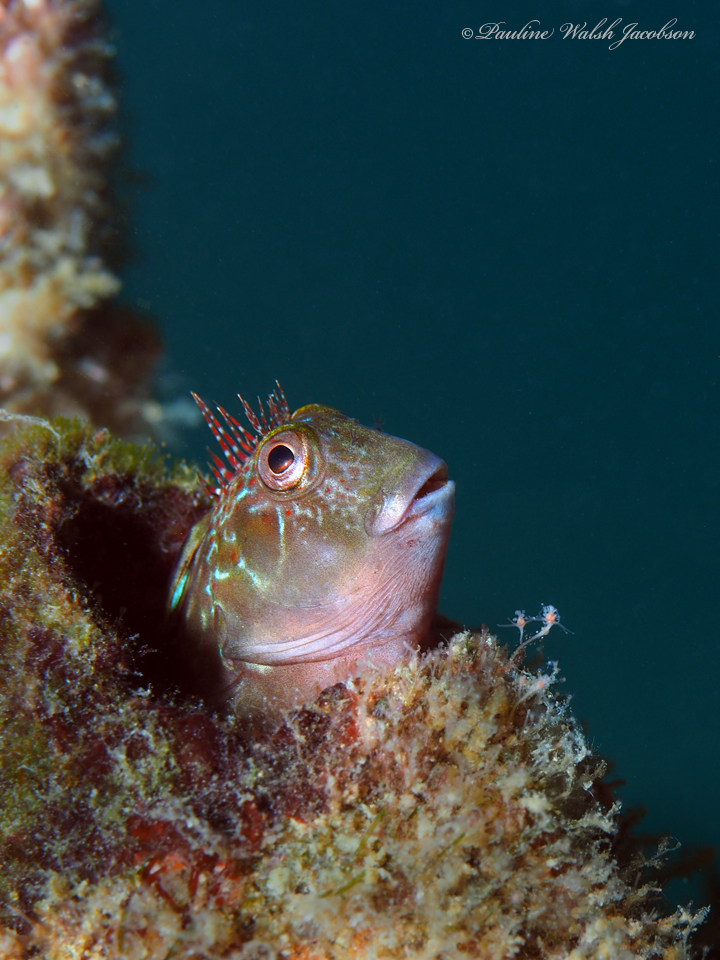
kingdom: Animalia
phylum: Chordata
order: Perciformes
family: Blenniidae
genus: Scartella
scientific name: Scartella cristata
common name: Molly miller
